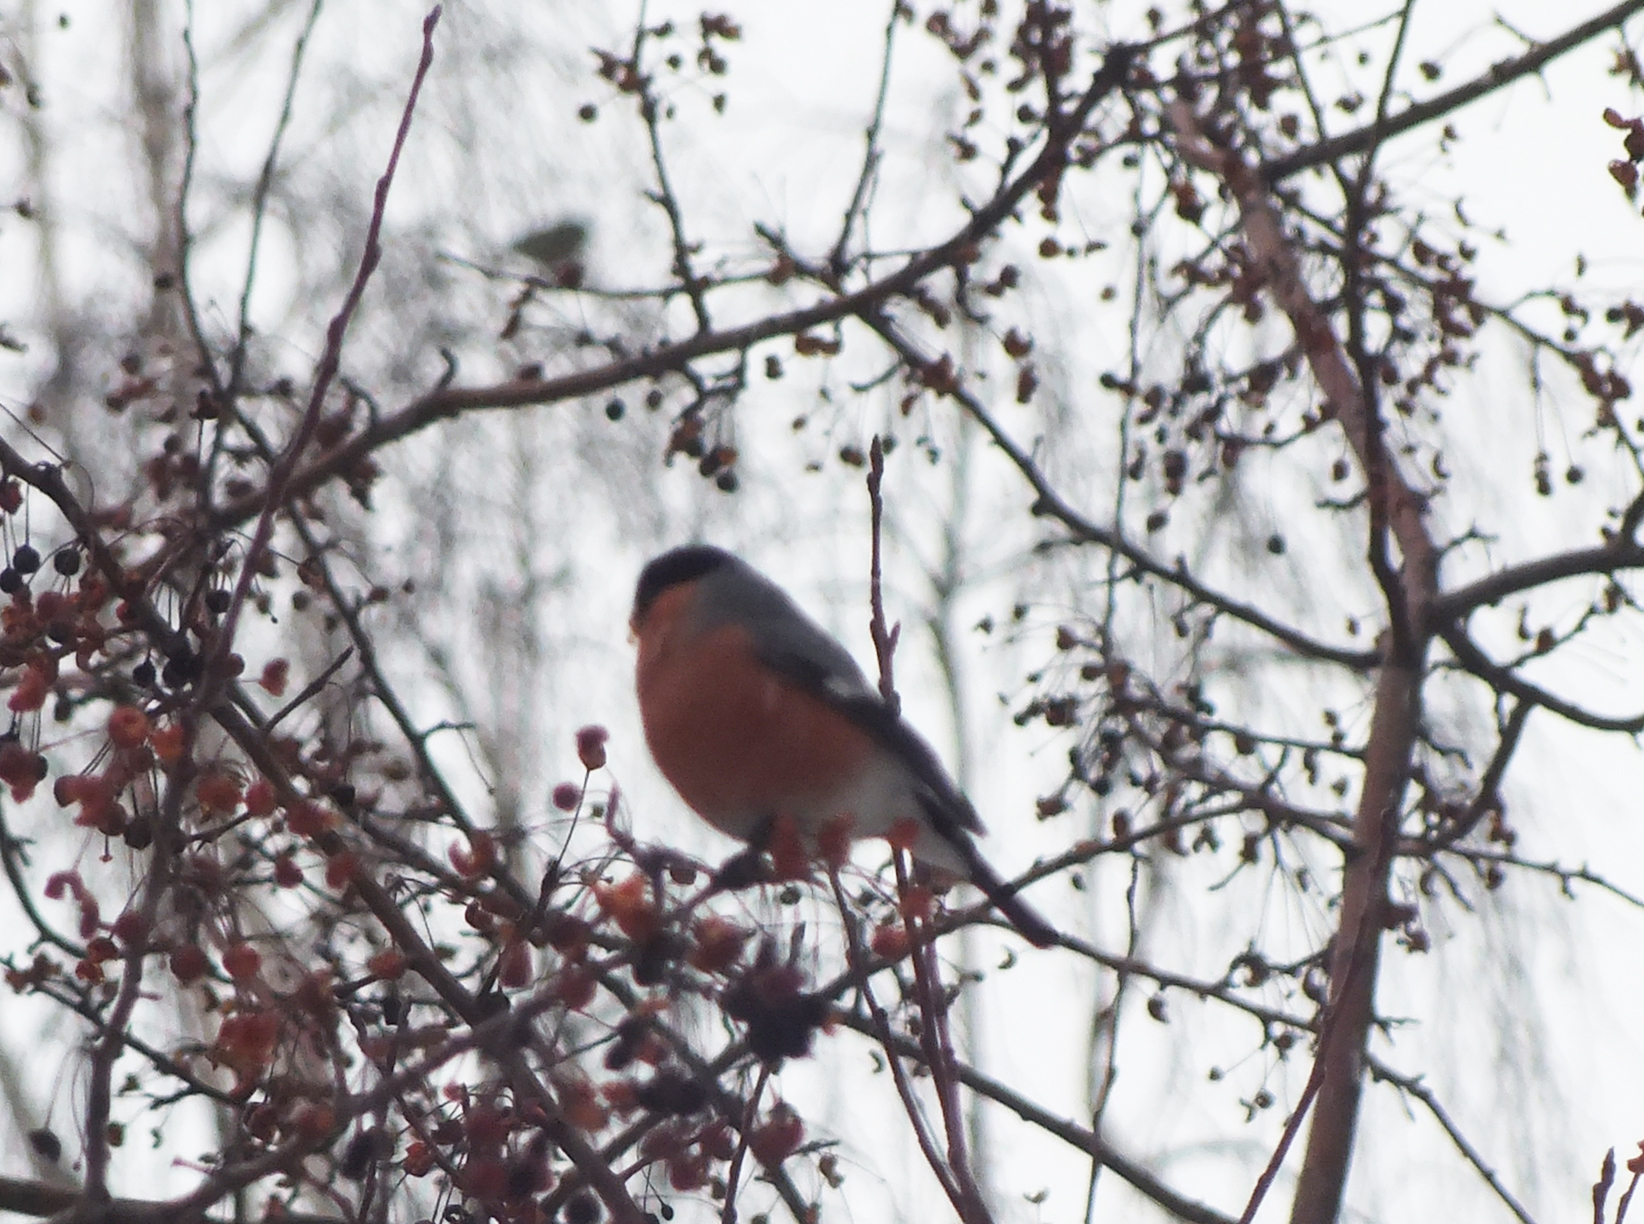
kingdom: Animalia
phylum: Chordata
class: Aves
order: Passeriformes
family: Fringillidae
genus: Pyrrhula
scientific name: Pyrrhula pyrrhula
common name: Eurasian bullfinch
